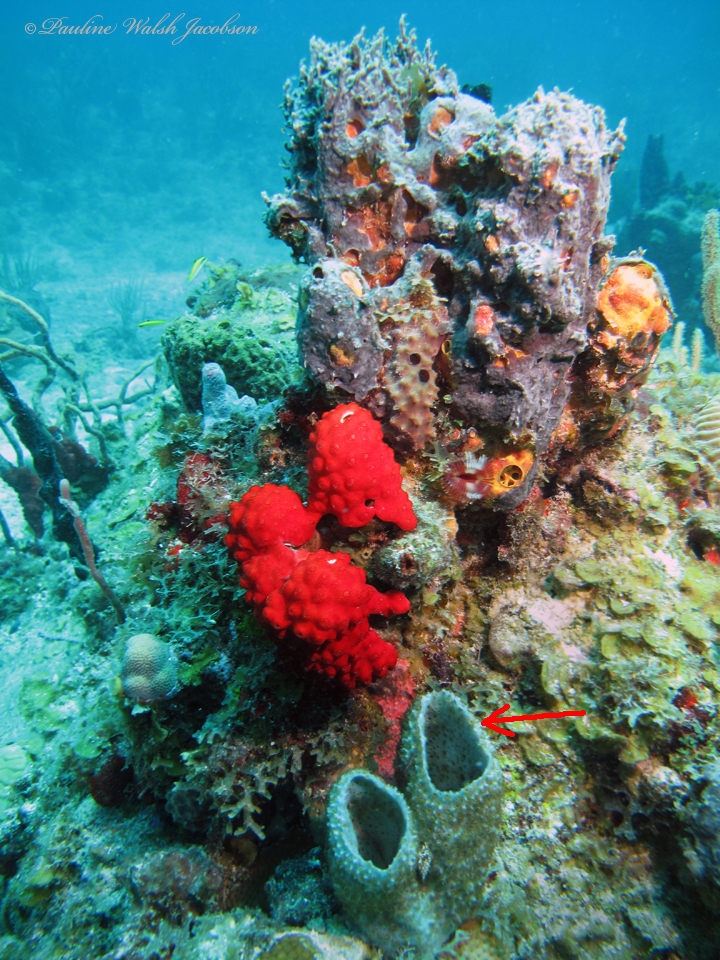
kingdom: Animalia
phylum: Porifera
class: Demospongiae
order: Haplosclerida
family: Niphatidae
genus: Niphates
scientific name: Niphates digitalis
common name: Pink vase sponge
